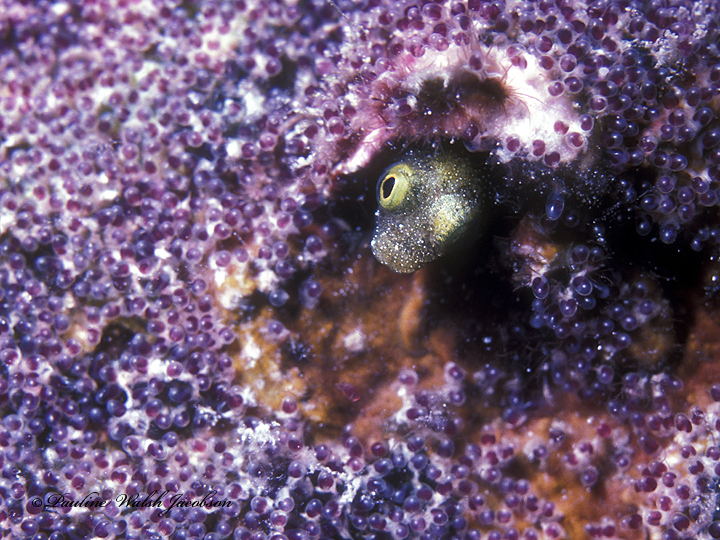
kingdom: Animalia
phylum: Chordata
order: Perciformes
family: Chaenopsidae
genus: Acanthemblemaria
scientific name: Acanthemblemaria spinosa
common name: Spinyhead blenny
